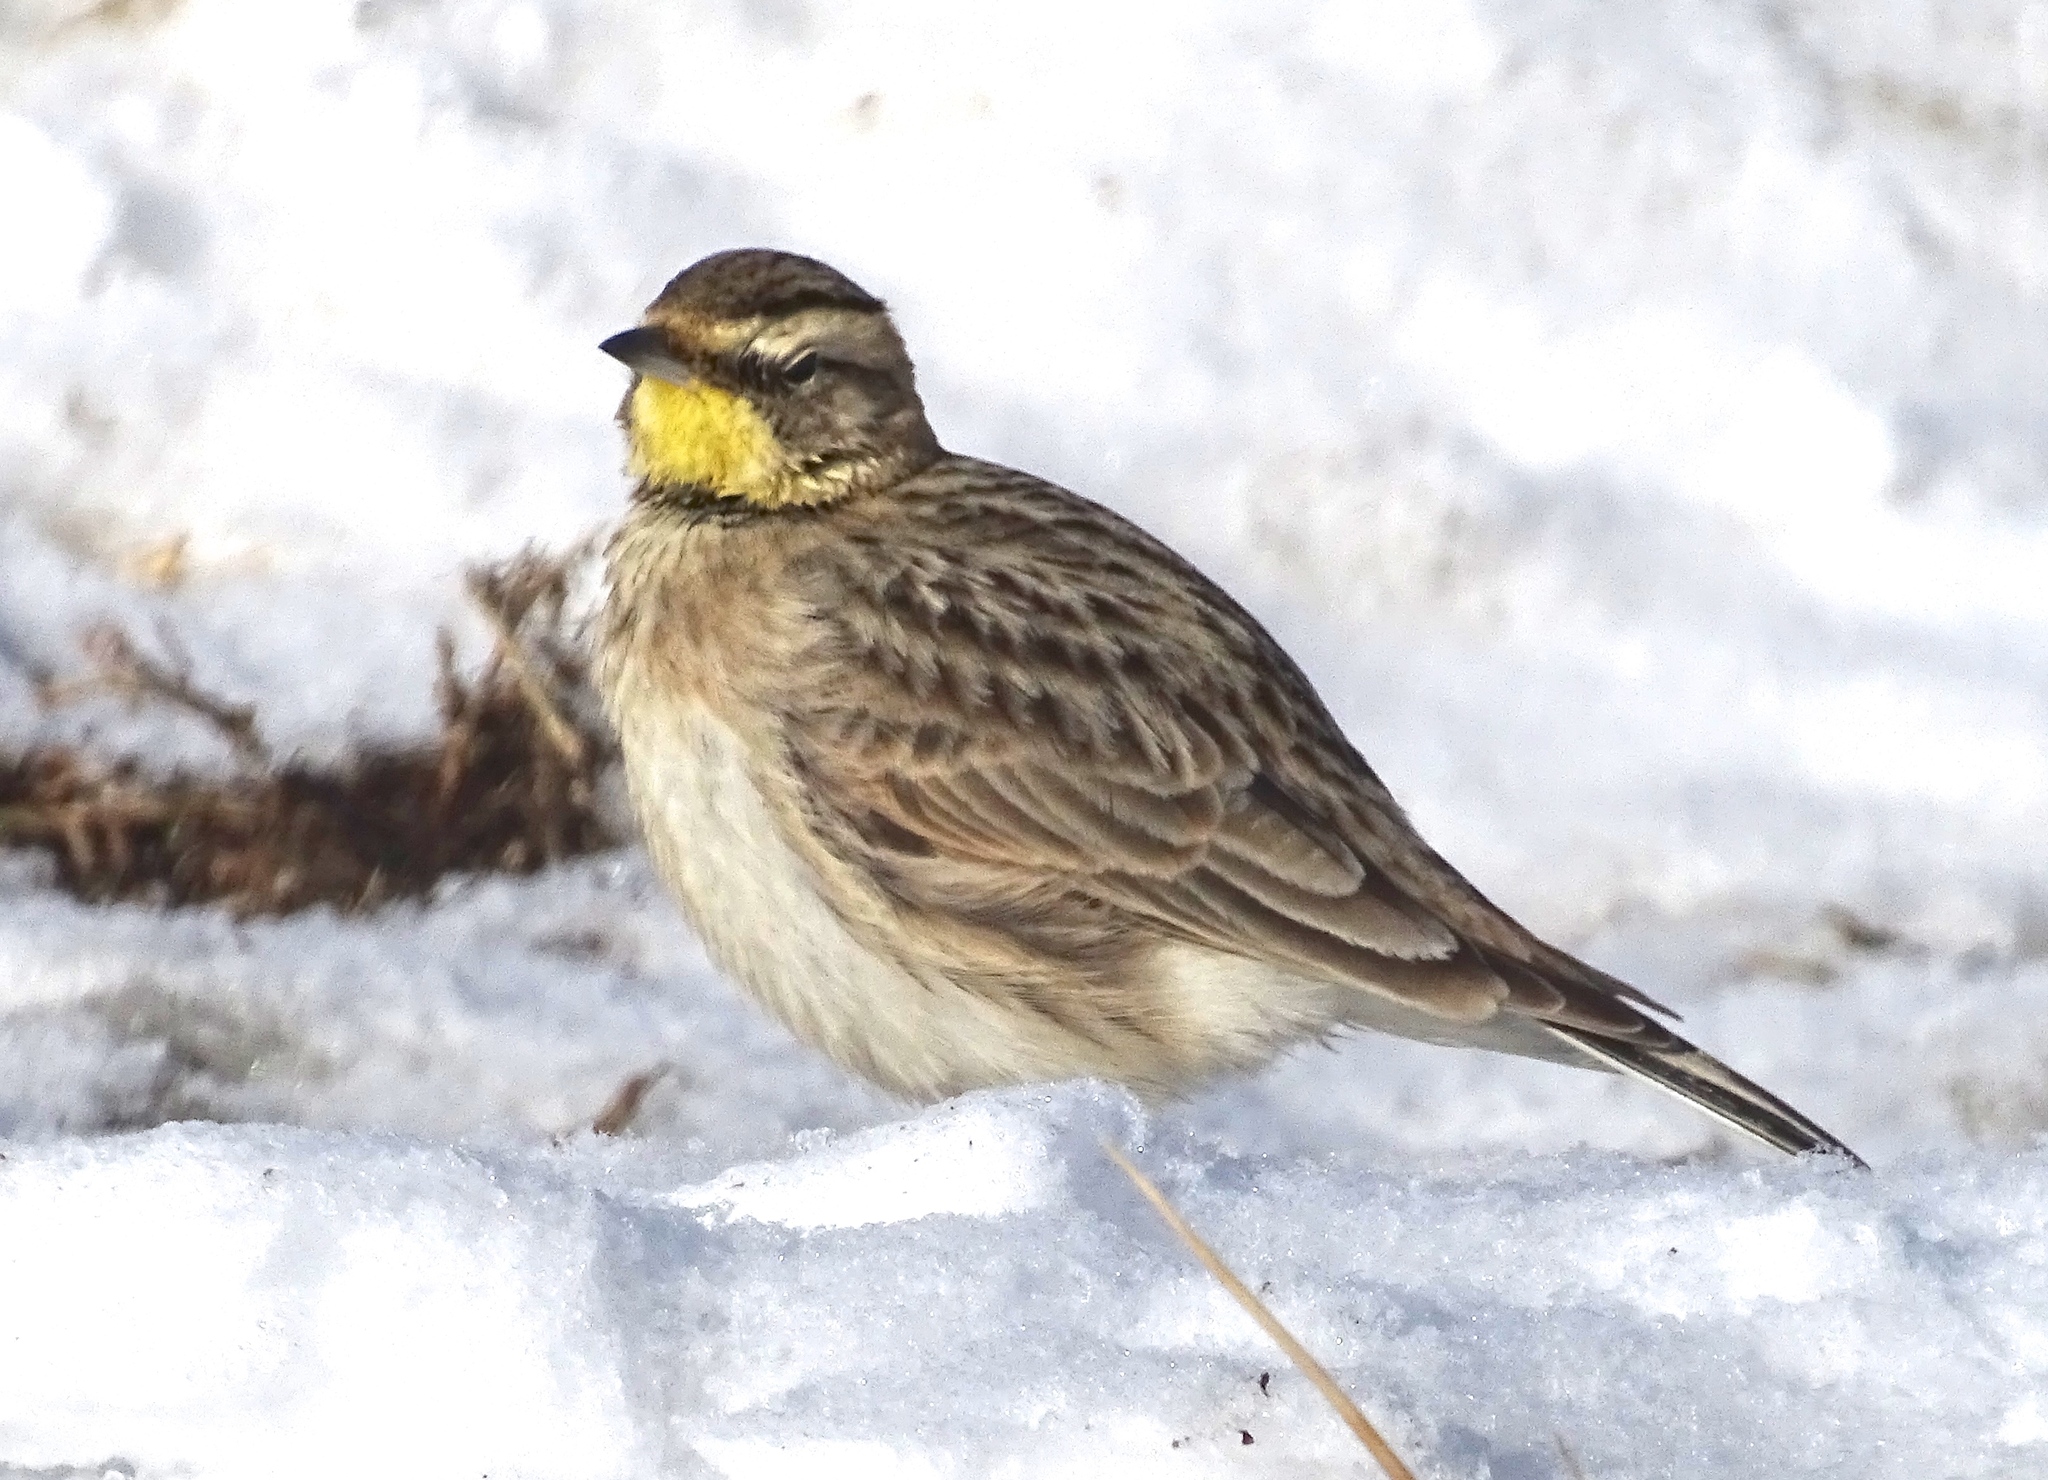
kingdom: Animalia
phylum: Chordata
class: Aves
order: Passeriformes
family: Alaudidae
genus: Eremophila
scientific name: Eremophila alpestris
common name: Horned lark
